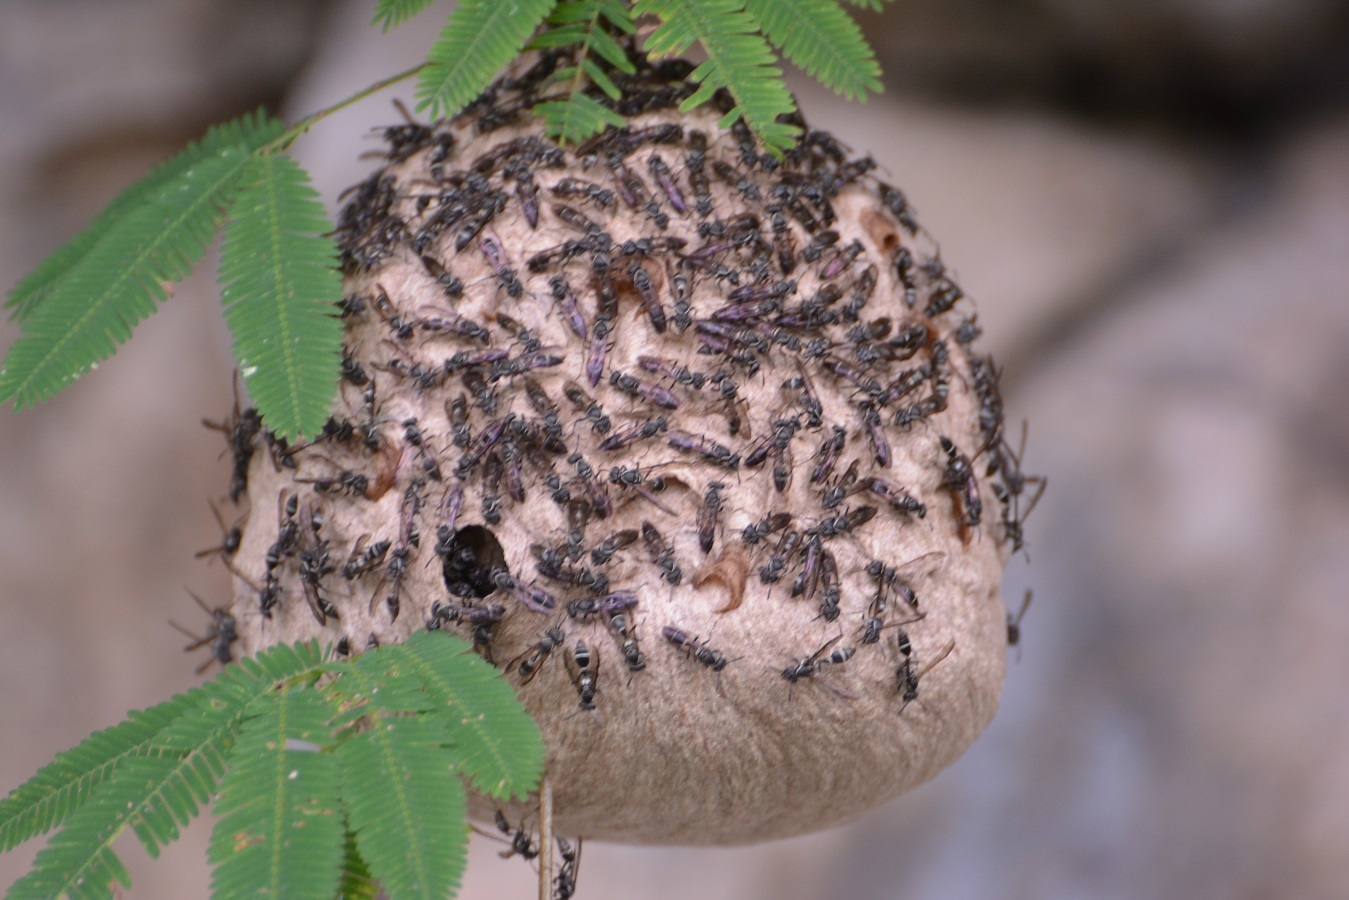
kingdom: Animalia
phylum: Arthropoda
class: Insecta
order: Hymenoptera
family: Eumenidae
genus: Polybia
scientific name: Polybia plebeja
